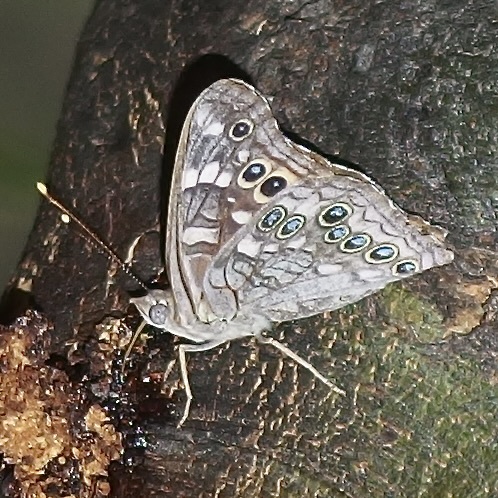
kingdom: Animalia
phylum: Arthropoda
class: Insecta
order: Lepidoptera
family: Nymphalidae
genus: Asterocampa
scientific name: Asterocampa leilia
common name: Empress leilia
